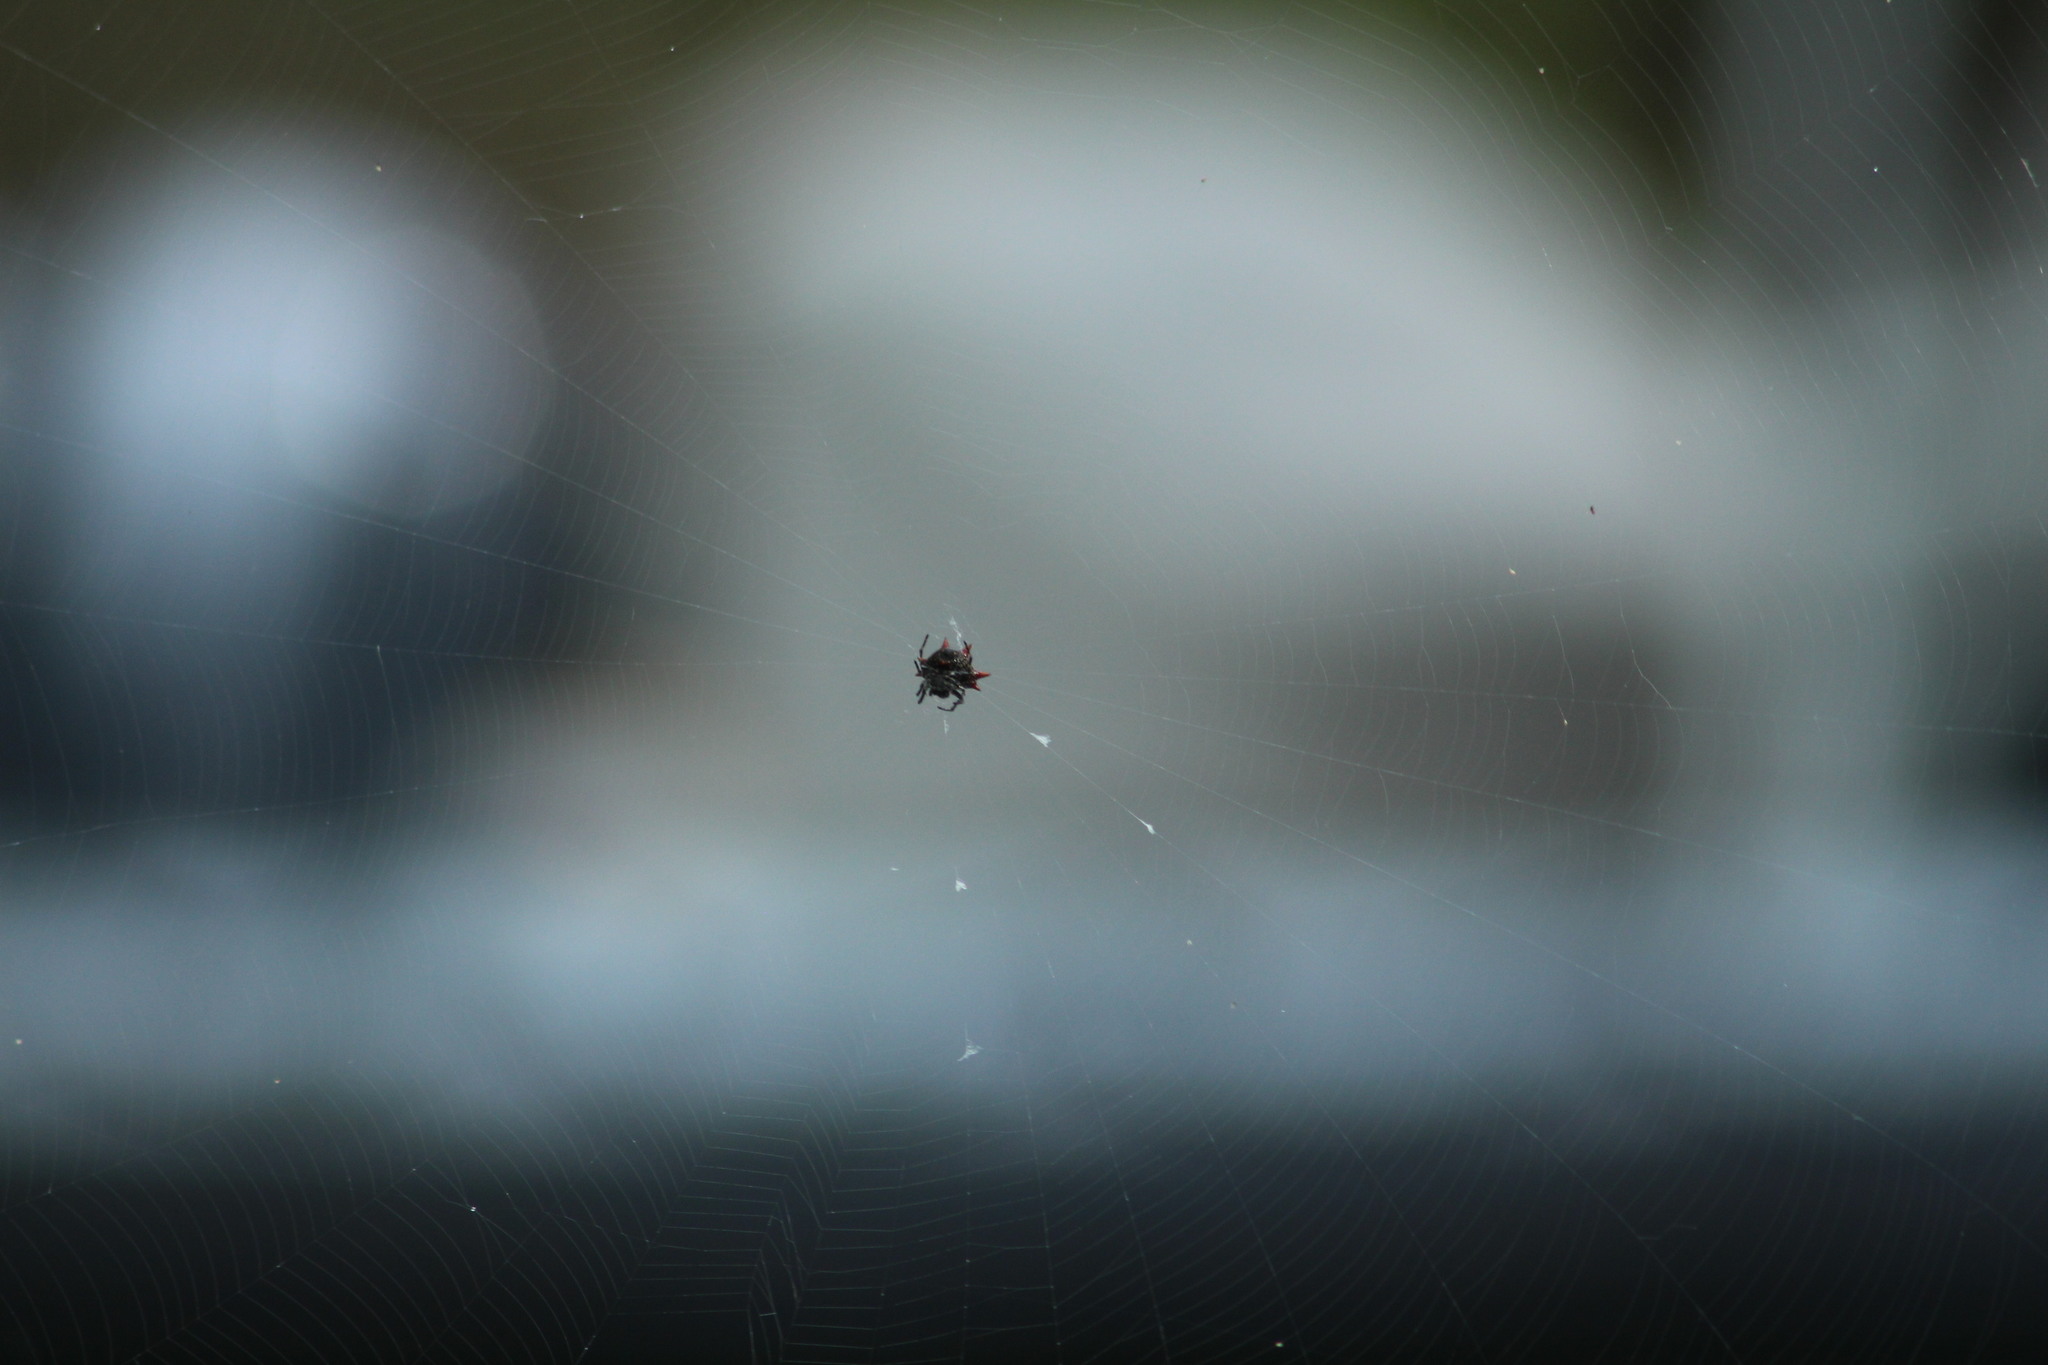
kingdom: Animalia
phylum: Arthropoda
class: Arachnida
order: Araneae
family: Araneidae
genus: Gasteracantha
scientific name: Gasteracantha cancriformis
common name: Orb weavers
